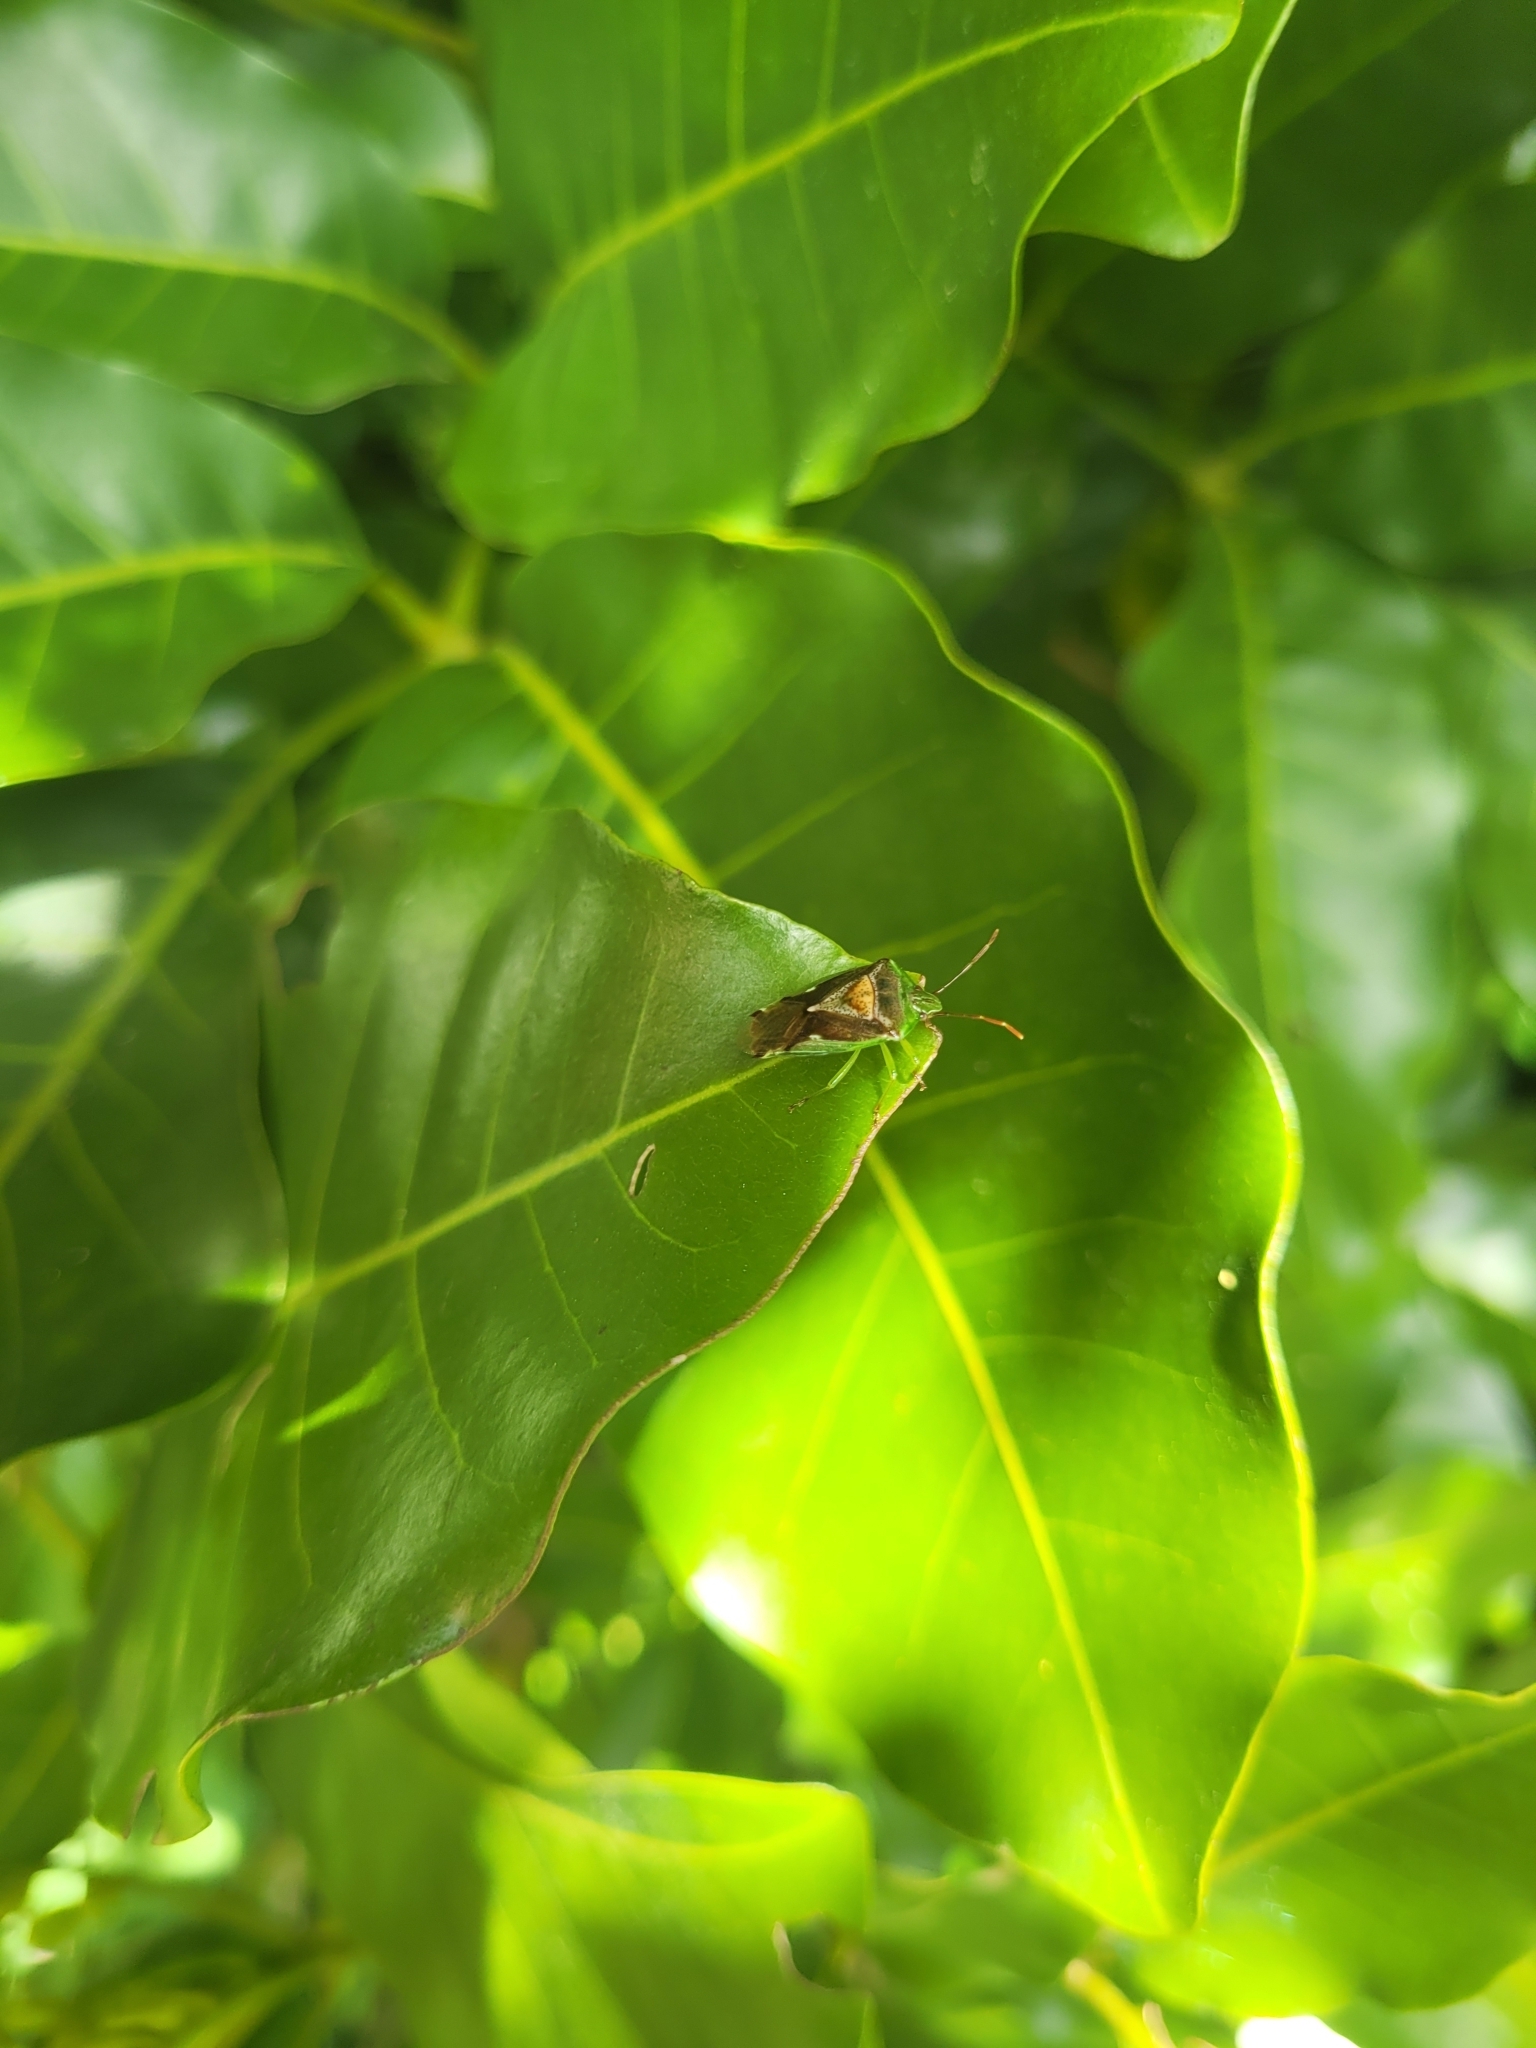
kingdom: Animalia
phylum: Arthropoda
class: Insecta
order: Hemiptera
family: Acanthosomatidae
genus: Oncacontias
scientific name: Oncacontias vittatus
